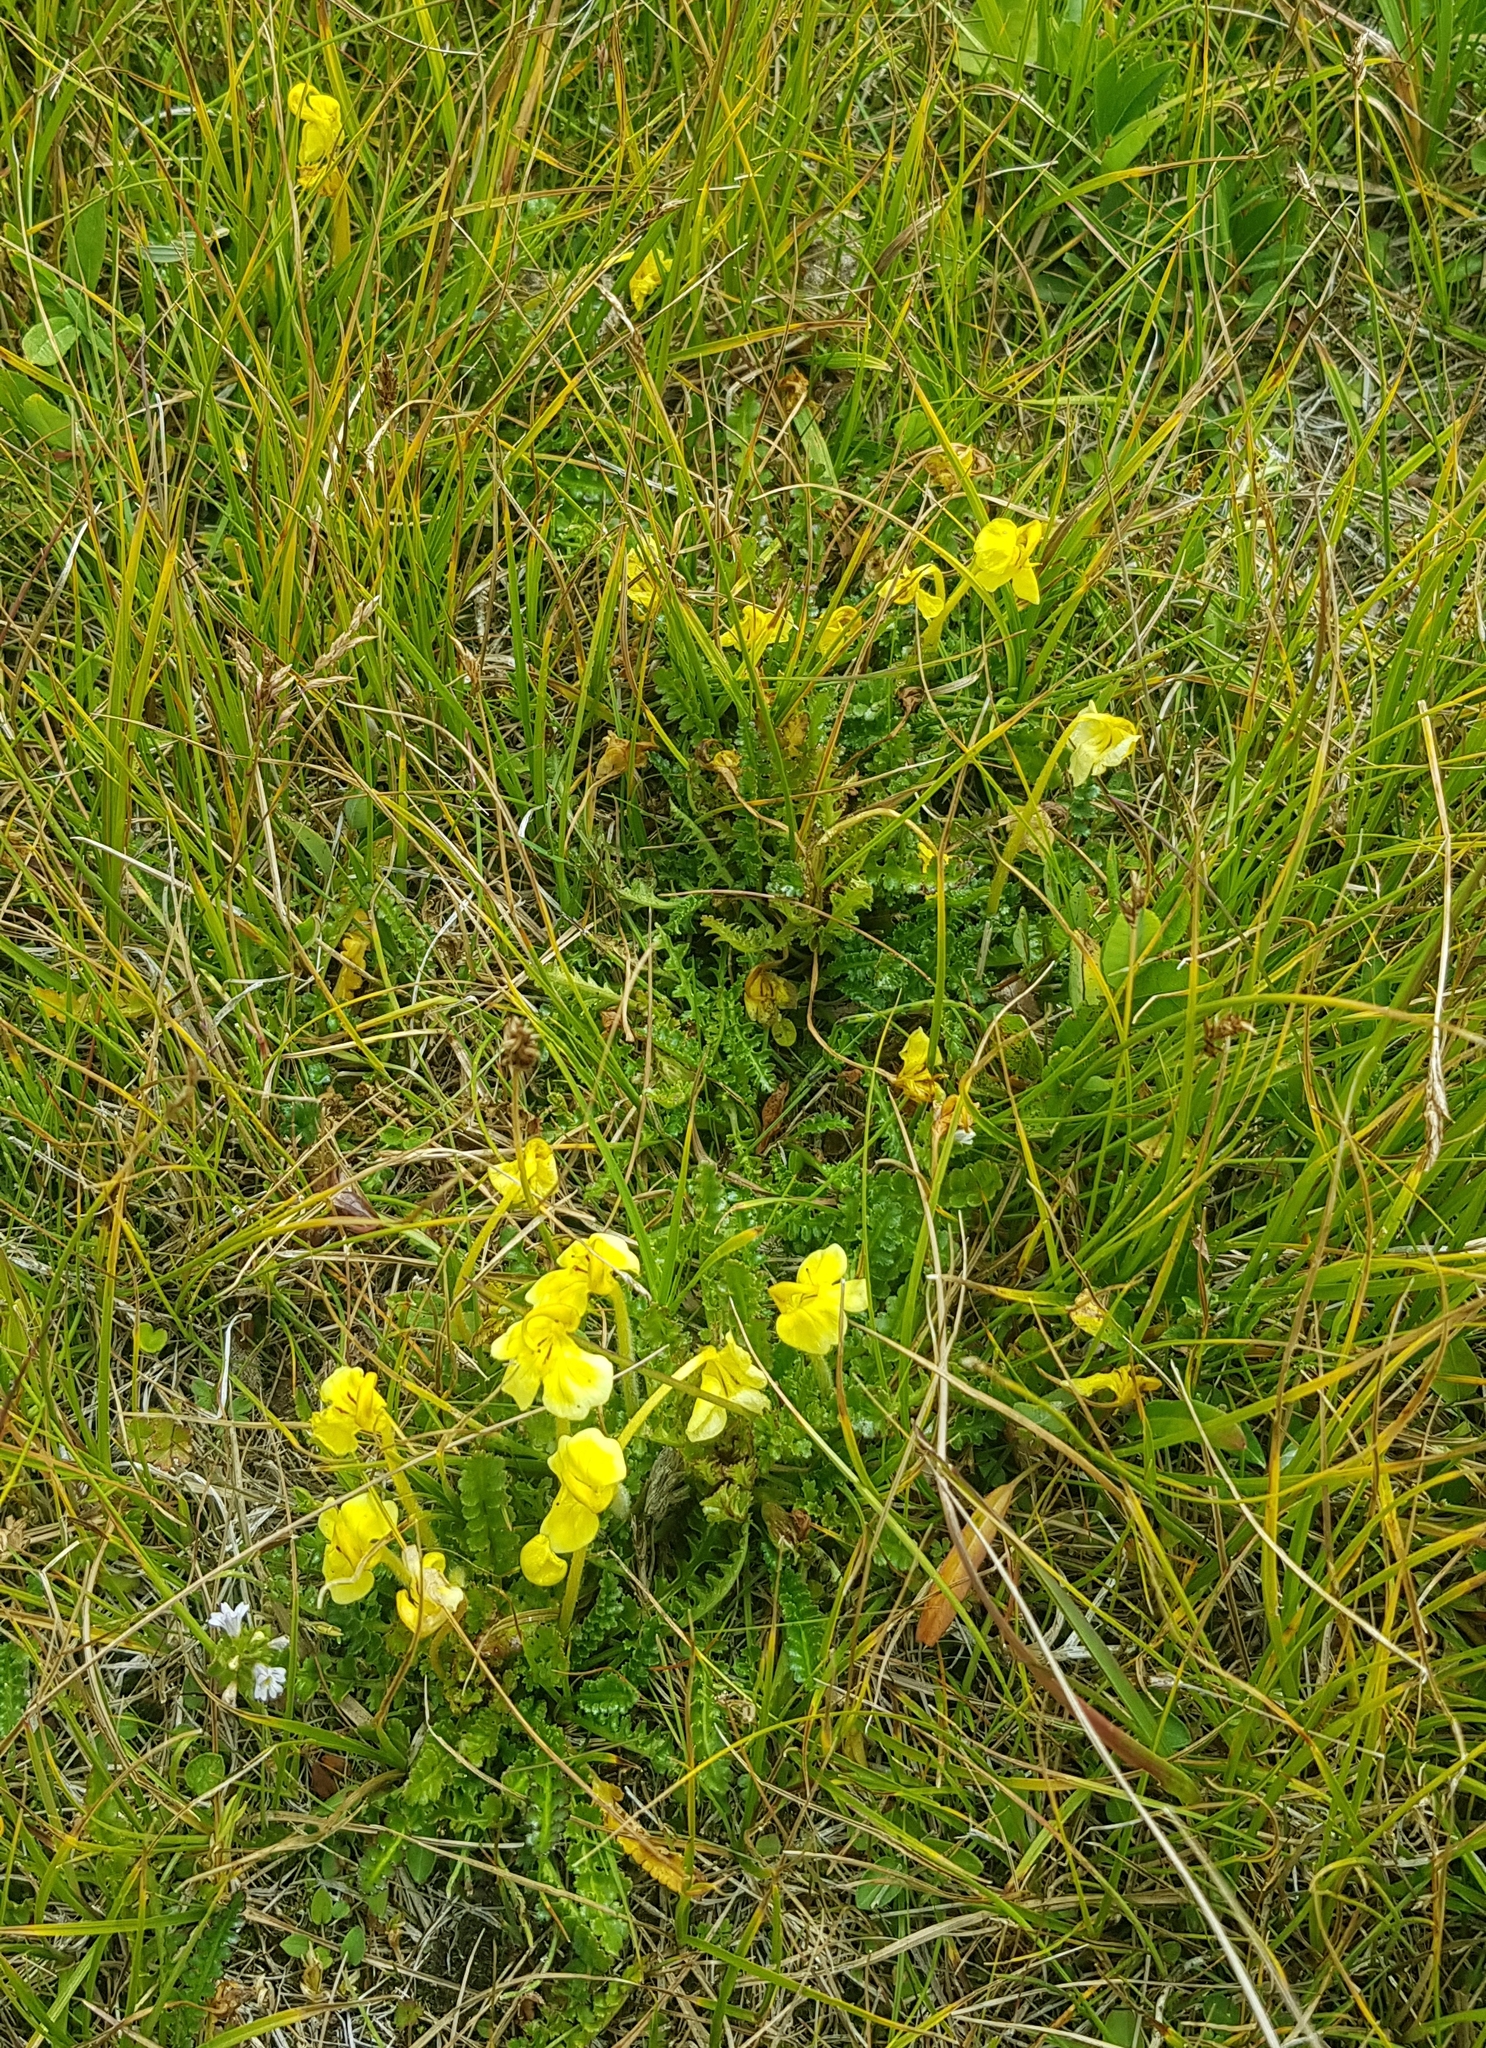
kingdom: Plantae
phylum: Tracheophyta
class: Magnoliopsida
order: Lamiales
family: Orobanchaceae
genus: Pedicularis
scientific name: Pedicularis longiflora
